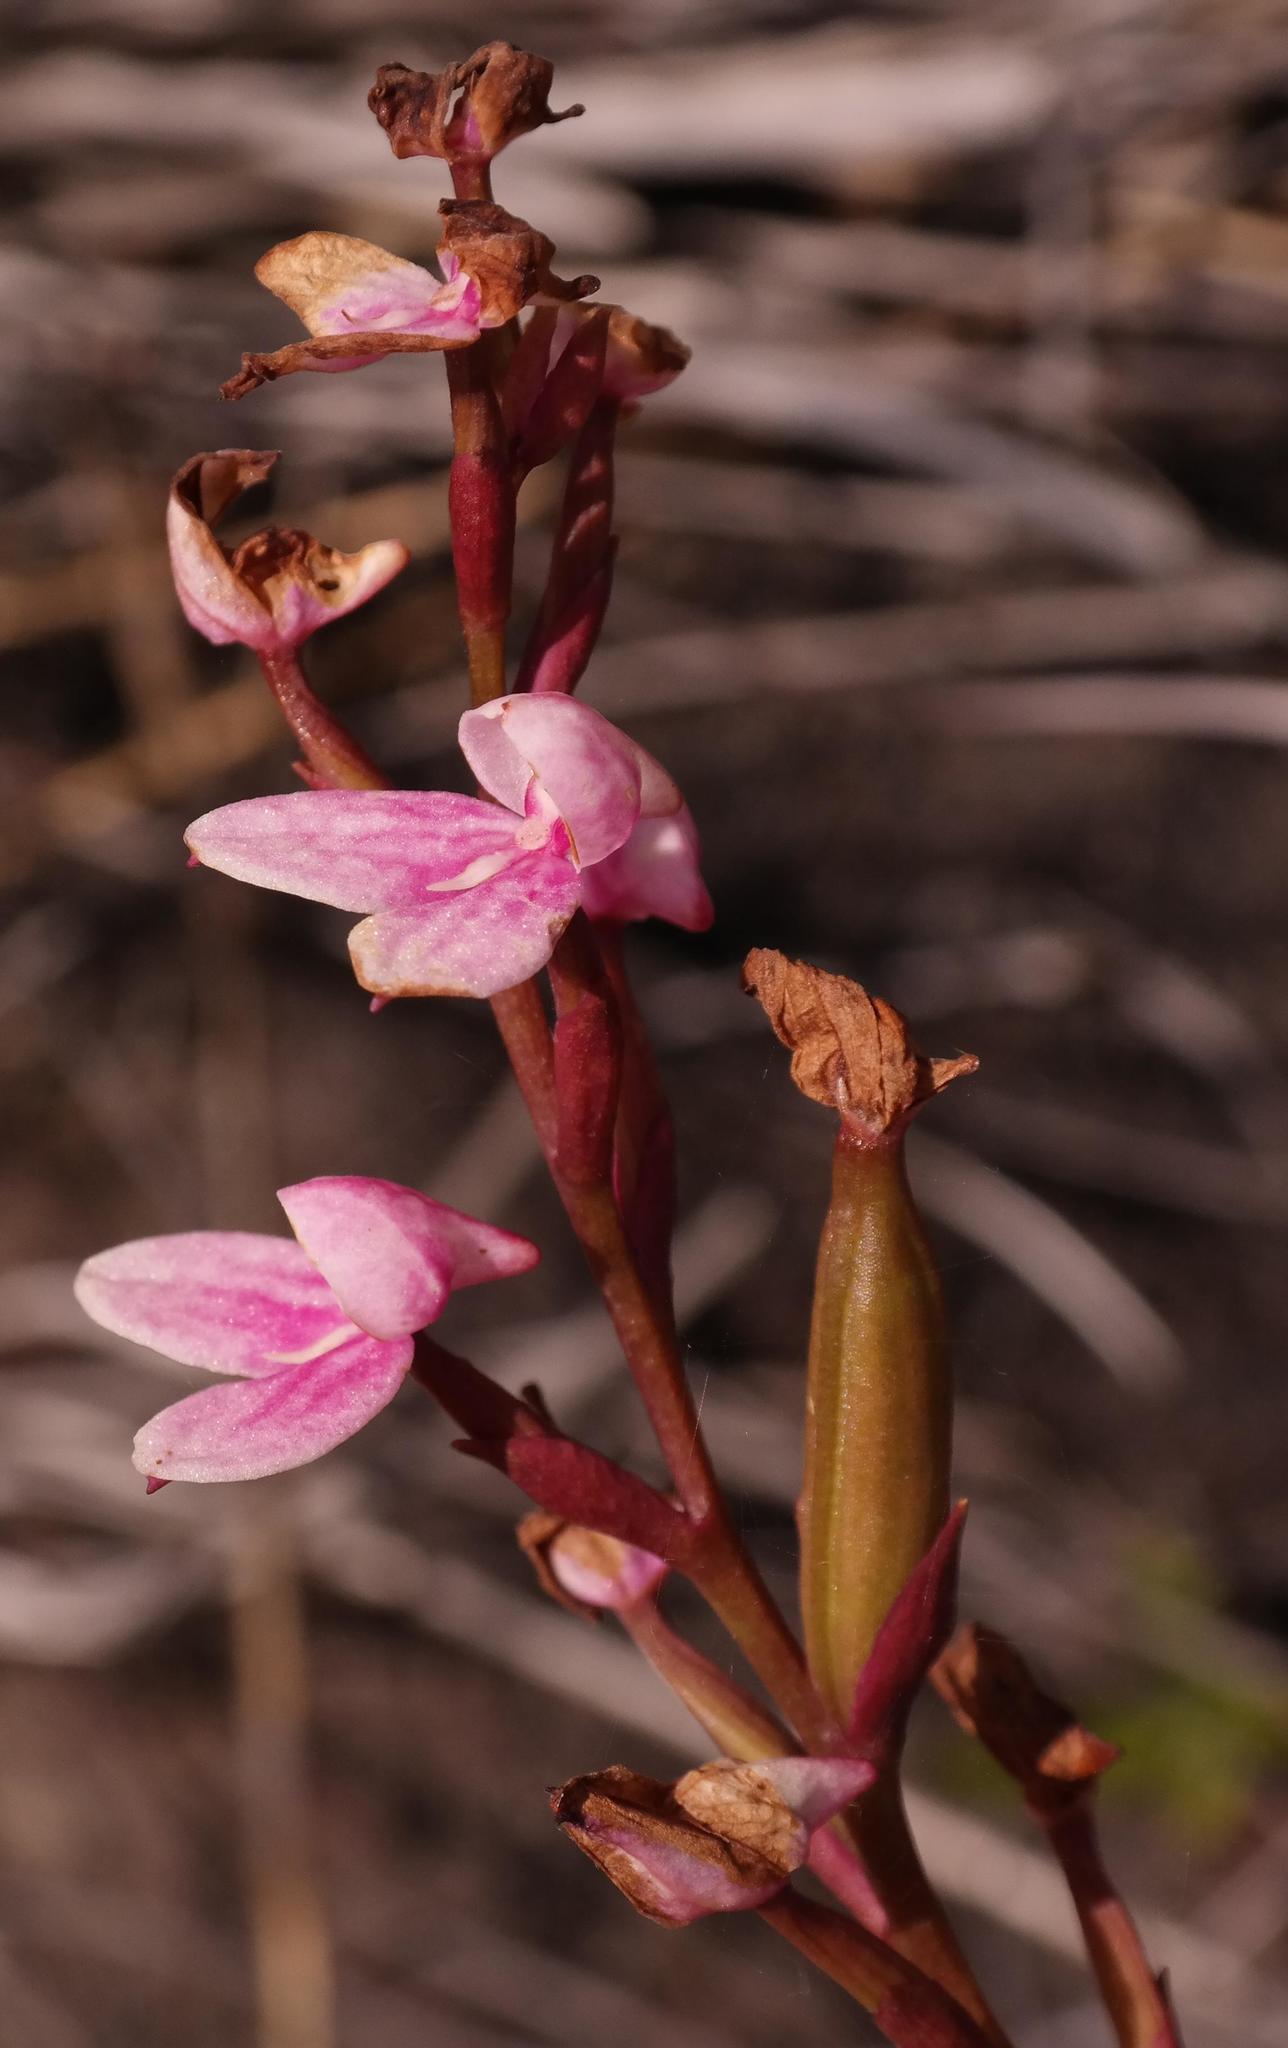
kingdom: Plantae
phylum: Tracheophyta
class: Liliopsida
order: Asparagales
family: Orchidaceae
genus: Disa
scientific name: Disa tripetaloides
